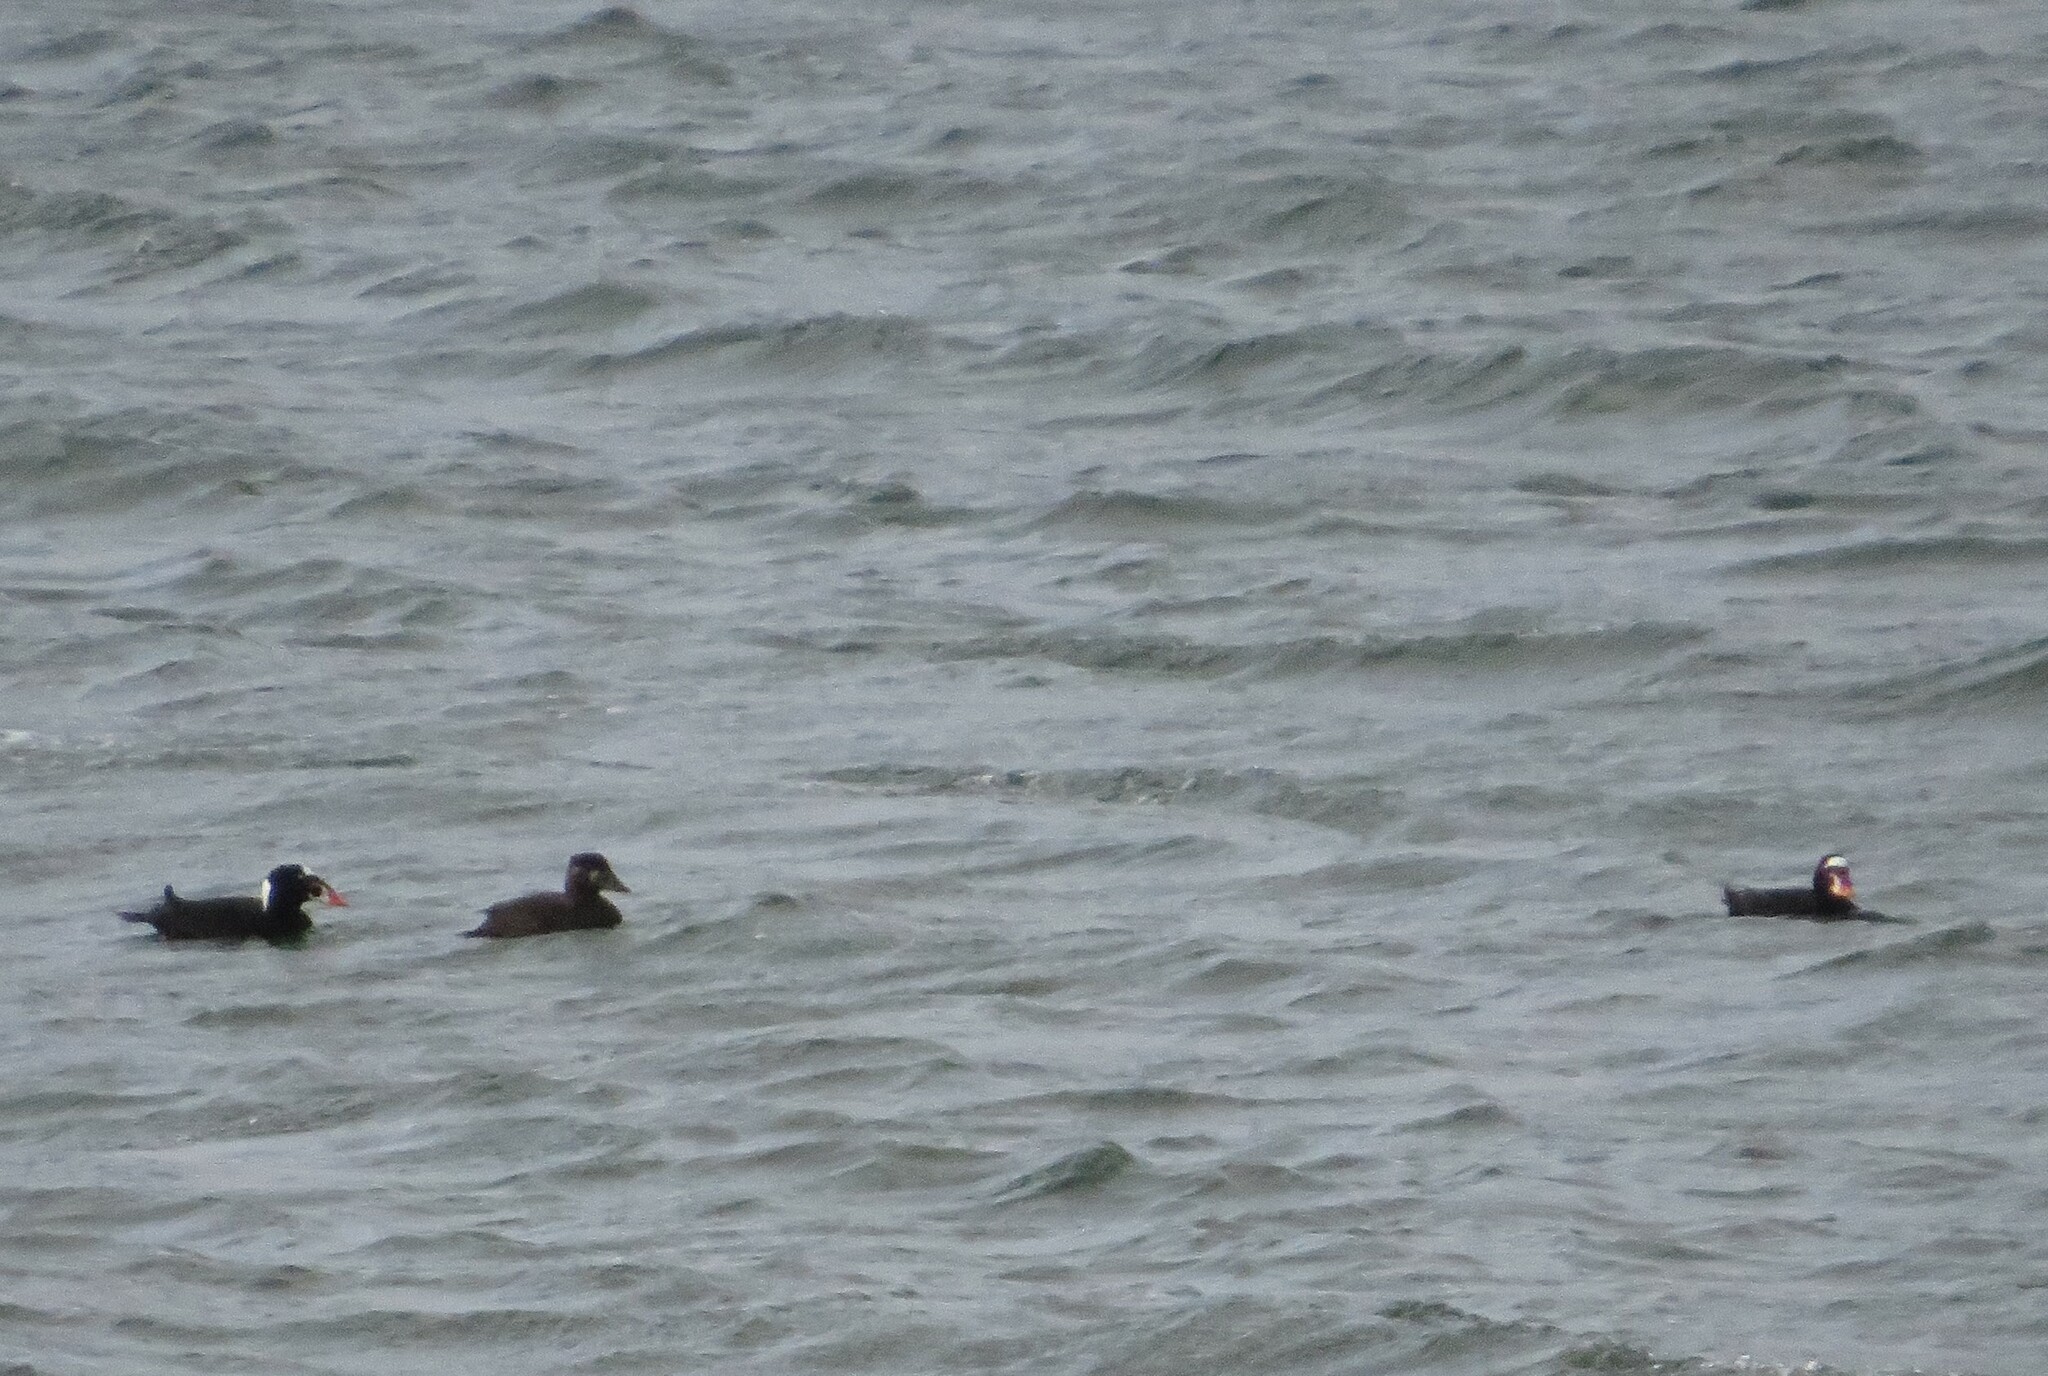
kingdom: Animalia
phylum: Chordata
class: Aves
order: Anseriformes
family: Anatidae
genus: Melanitta
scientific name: Melanitta perspicillata
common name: Surf scoter
